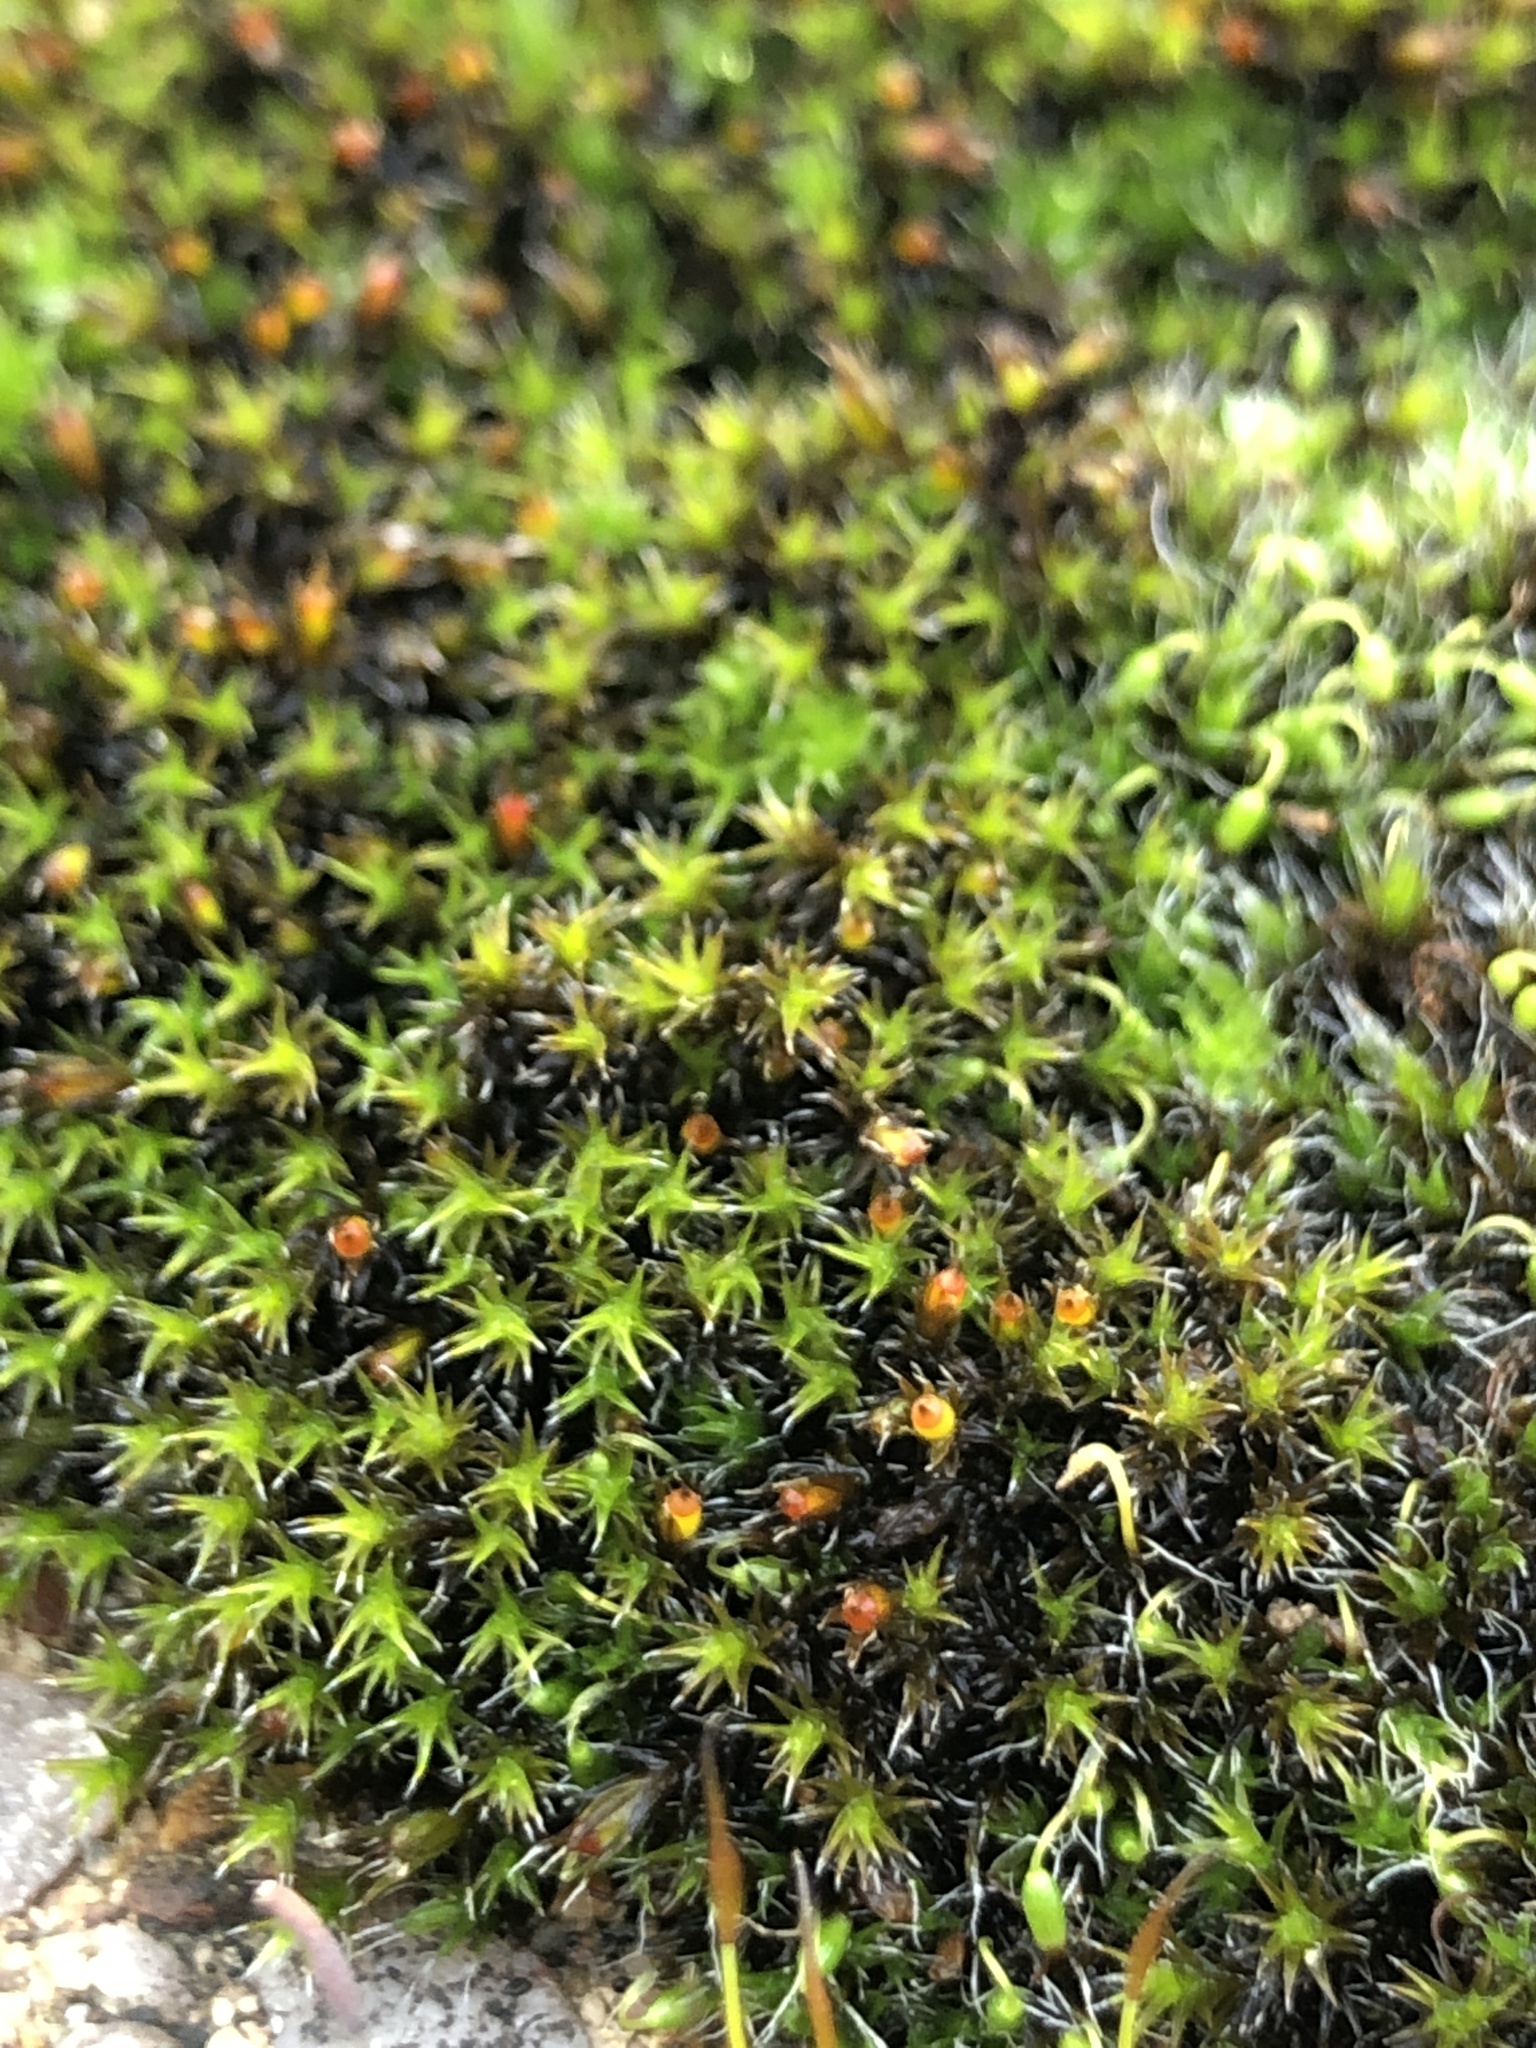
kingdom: Plantae
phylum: Bryophyta
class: Bryopsida
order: Grimmiales
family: Grimmiaceae
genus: Schistidium
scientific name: Schistidium crassipilum
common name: Thickpoint bloom moss
